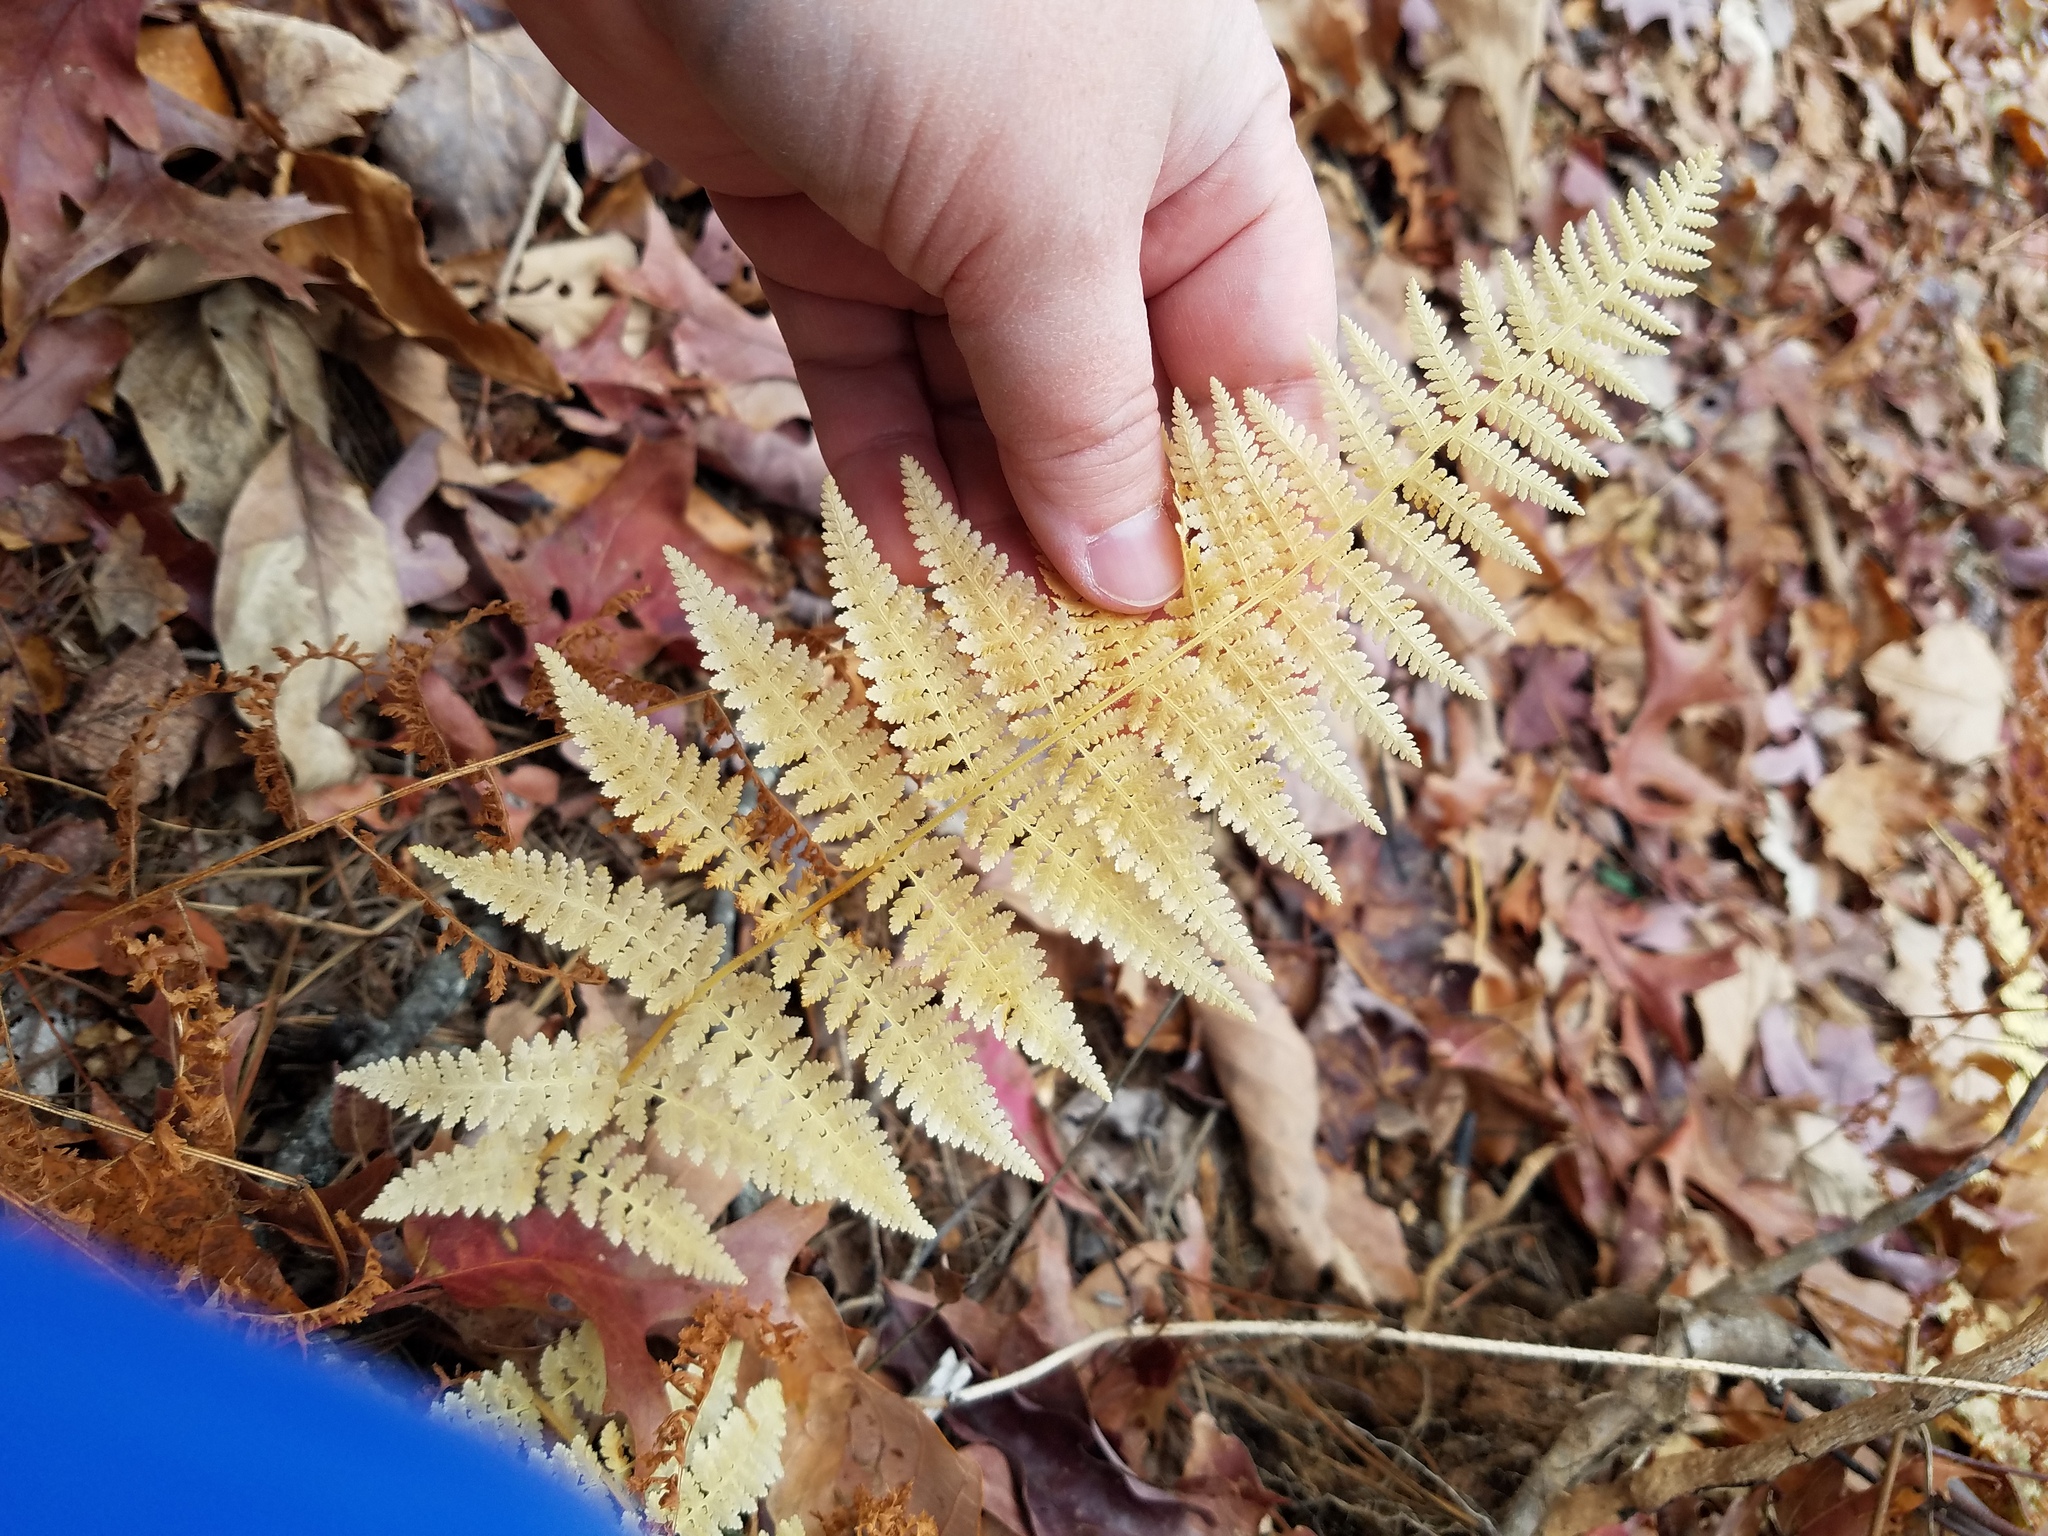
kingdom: Plantae
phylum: Tracheophyta
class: Polypodiopsida
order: Polypodiales
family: Dennstaedtiaceae
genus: Sitobolium
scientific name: Sitobolium punctilobum
